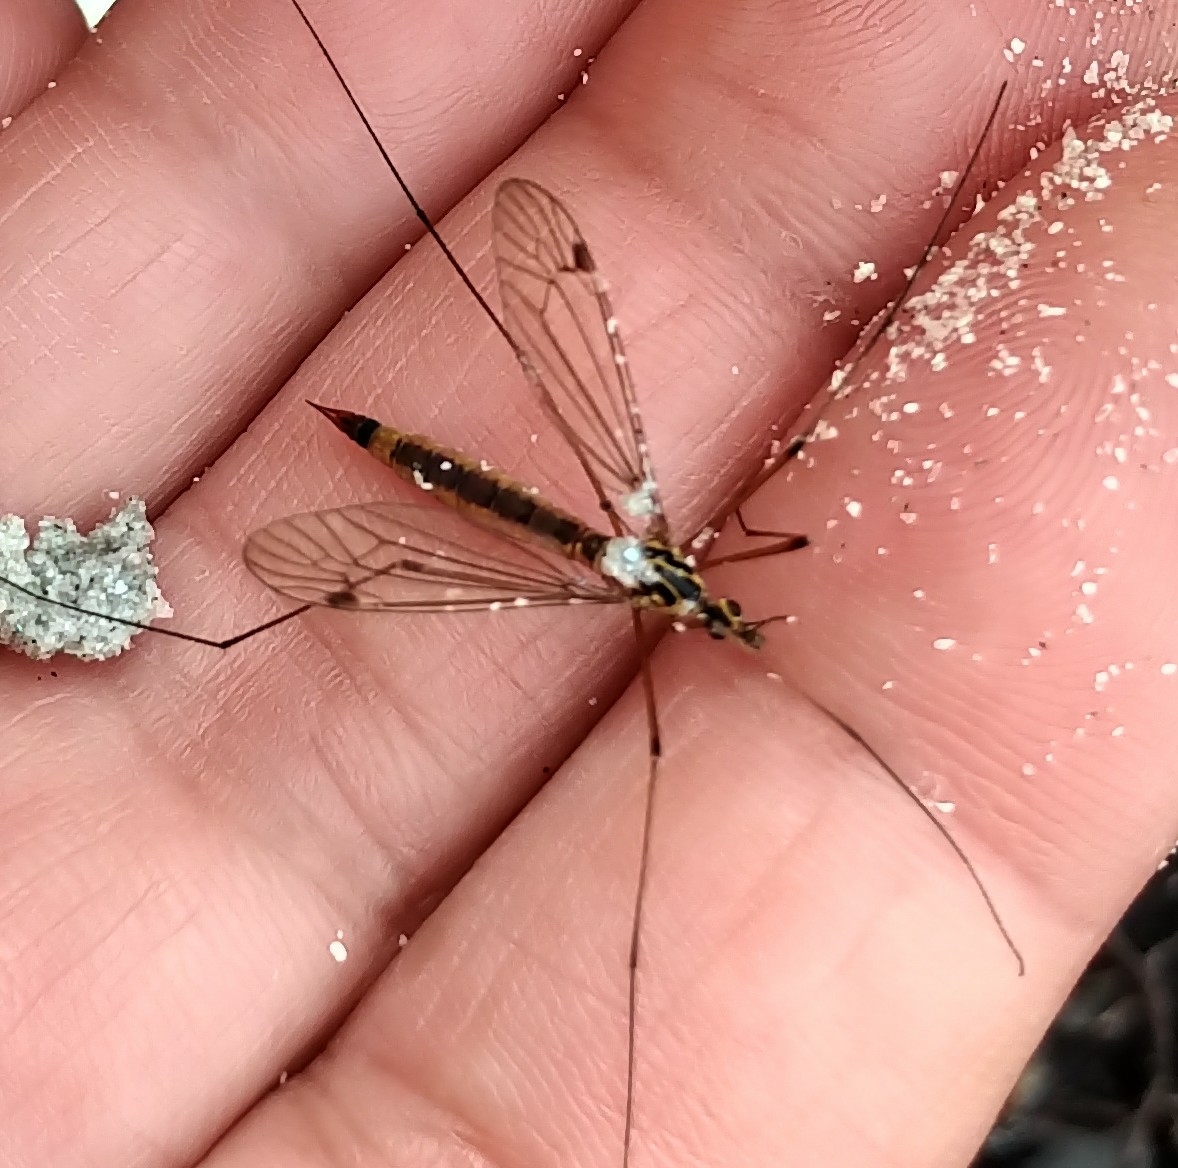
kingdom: Animalia
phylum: Arthropoda
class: Insecta
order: Diptera
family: Tipulidae
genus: Nephrotoma
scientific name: Nephrotoma cornicina
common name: Cranefly
